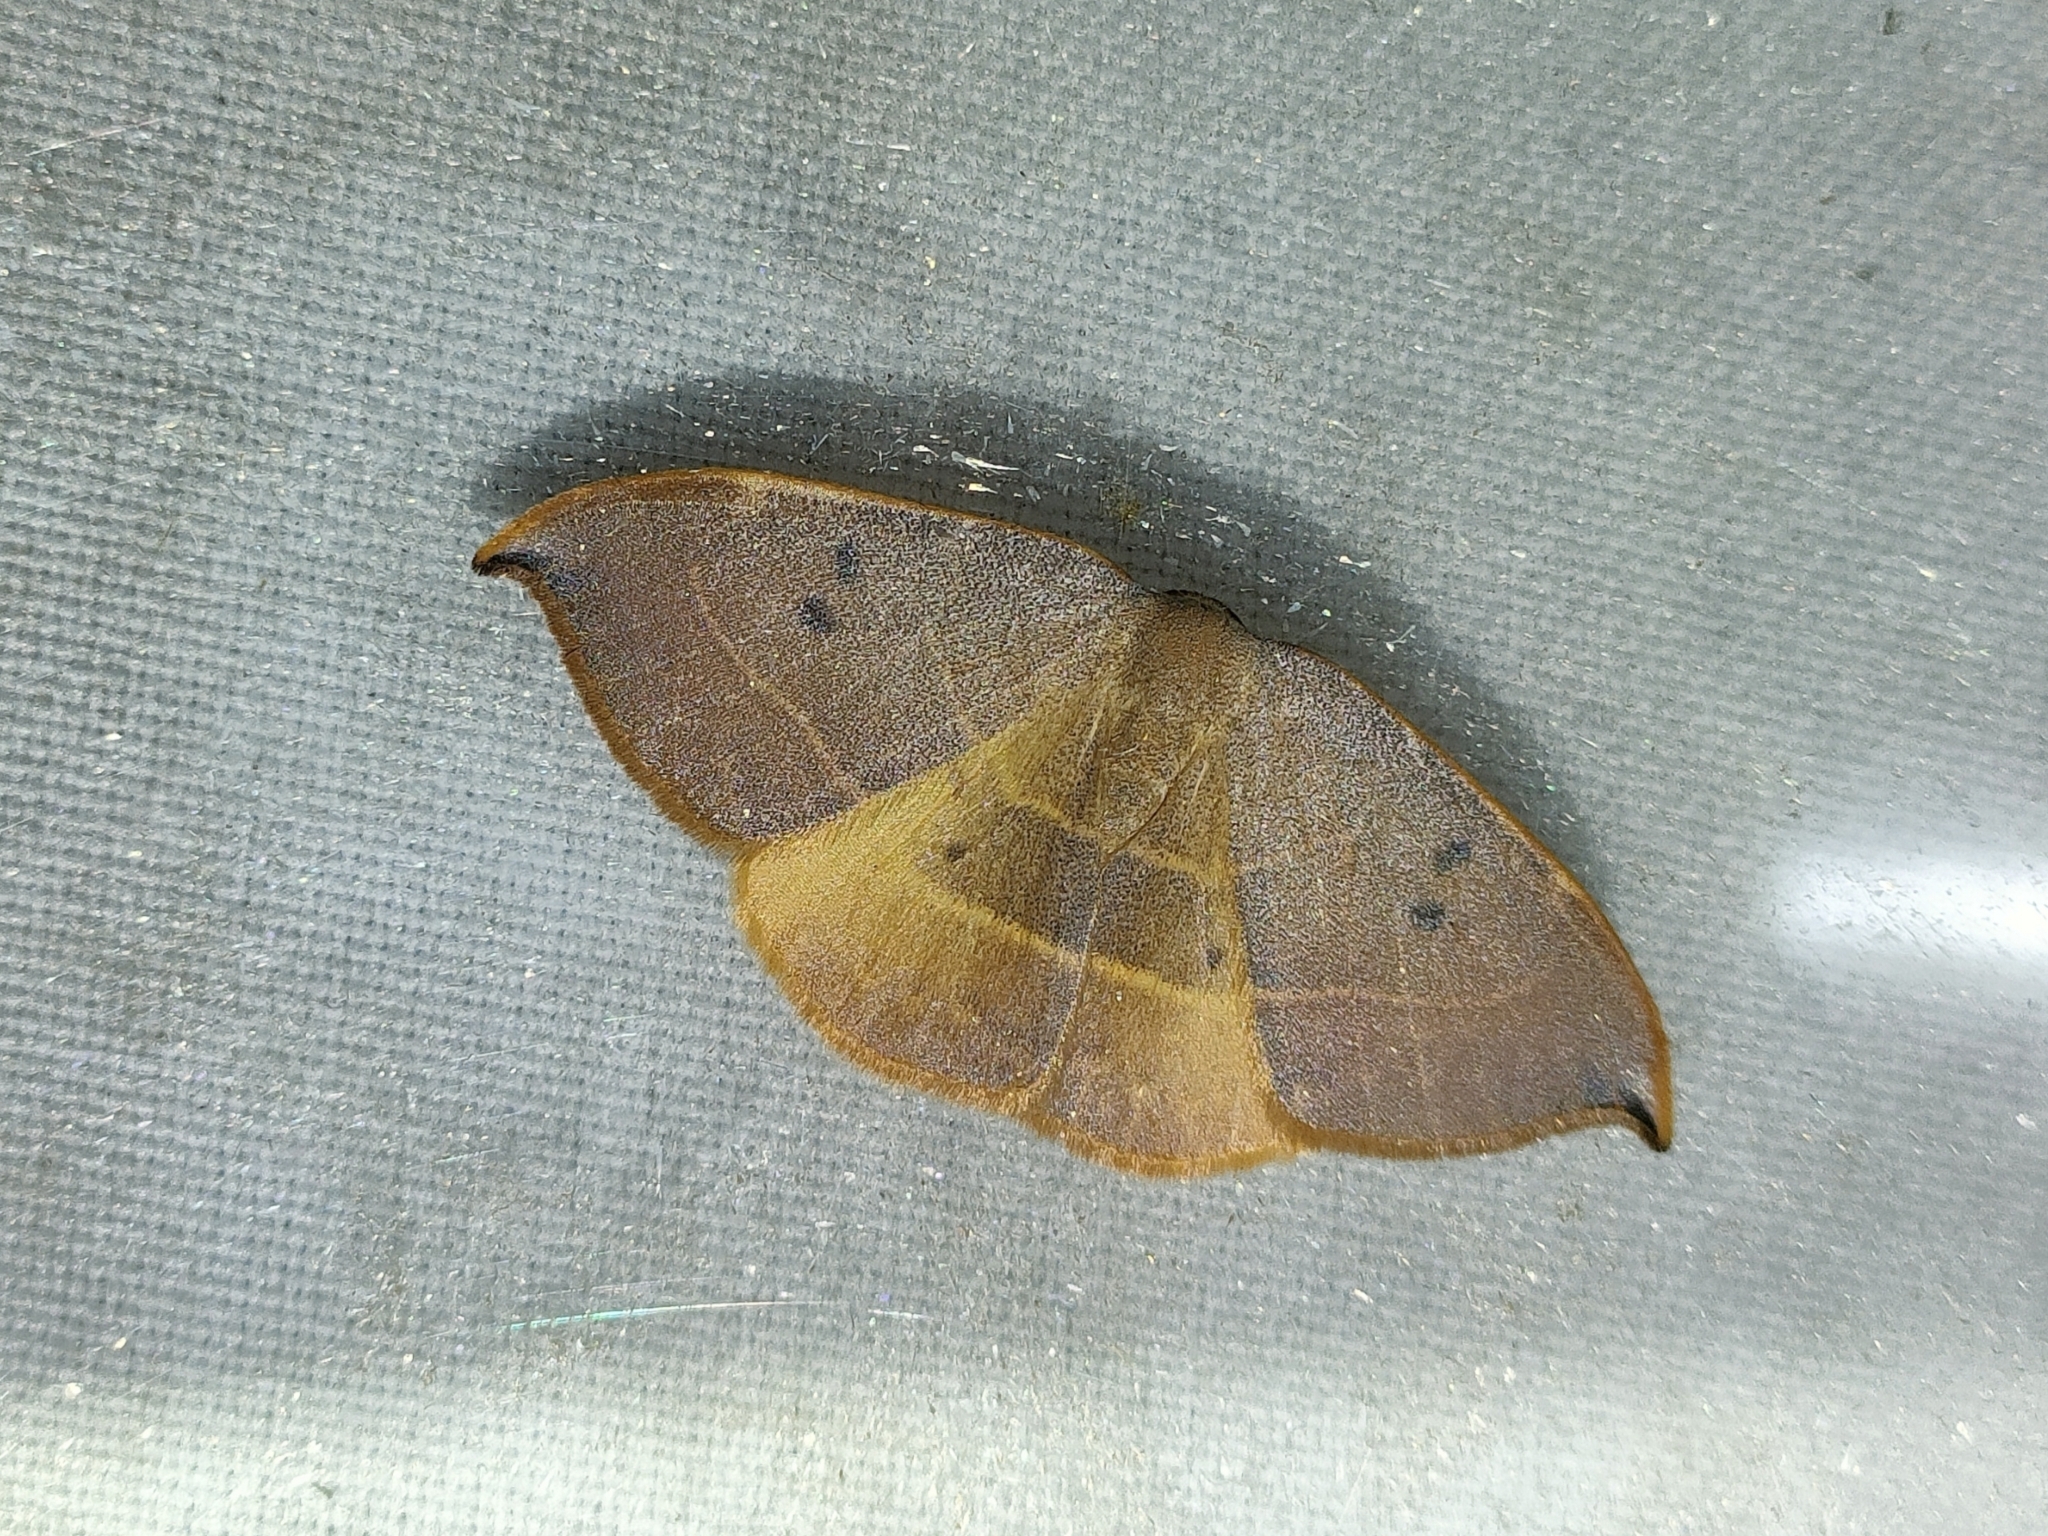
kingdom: Animalia
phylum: Arthropoda
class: Insecta
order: Lepidoptera
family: Drepanidae
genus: Watsonalla
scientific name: Watsonalla uncinula
